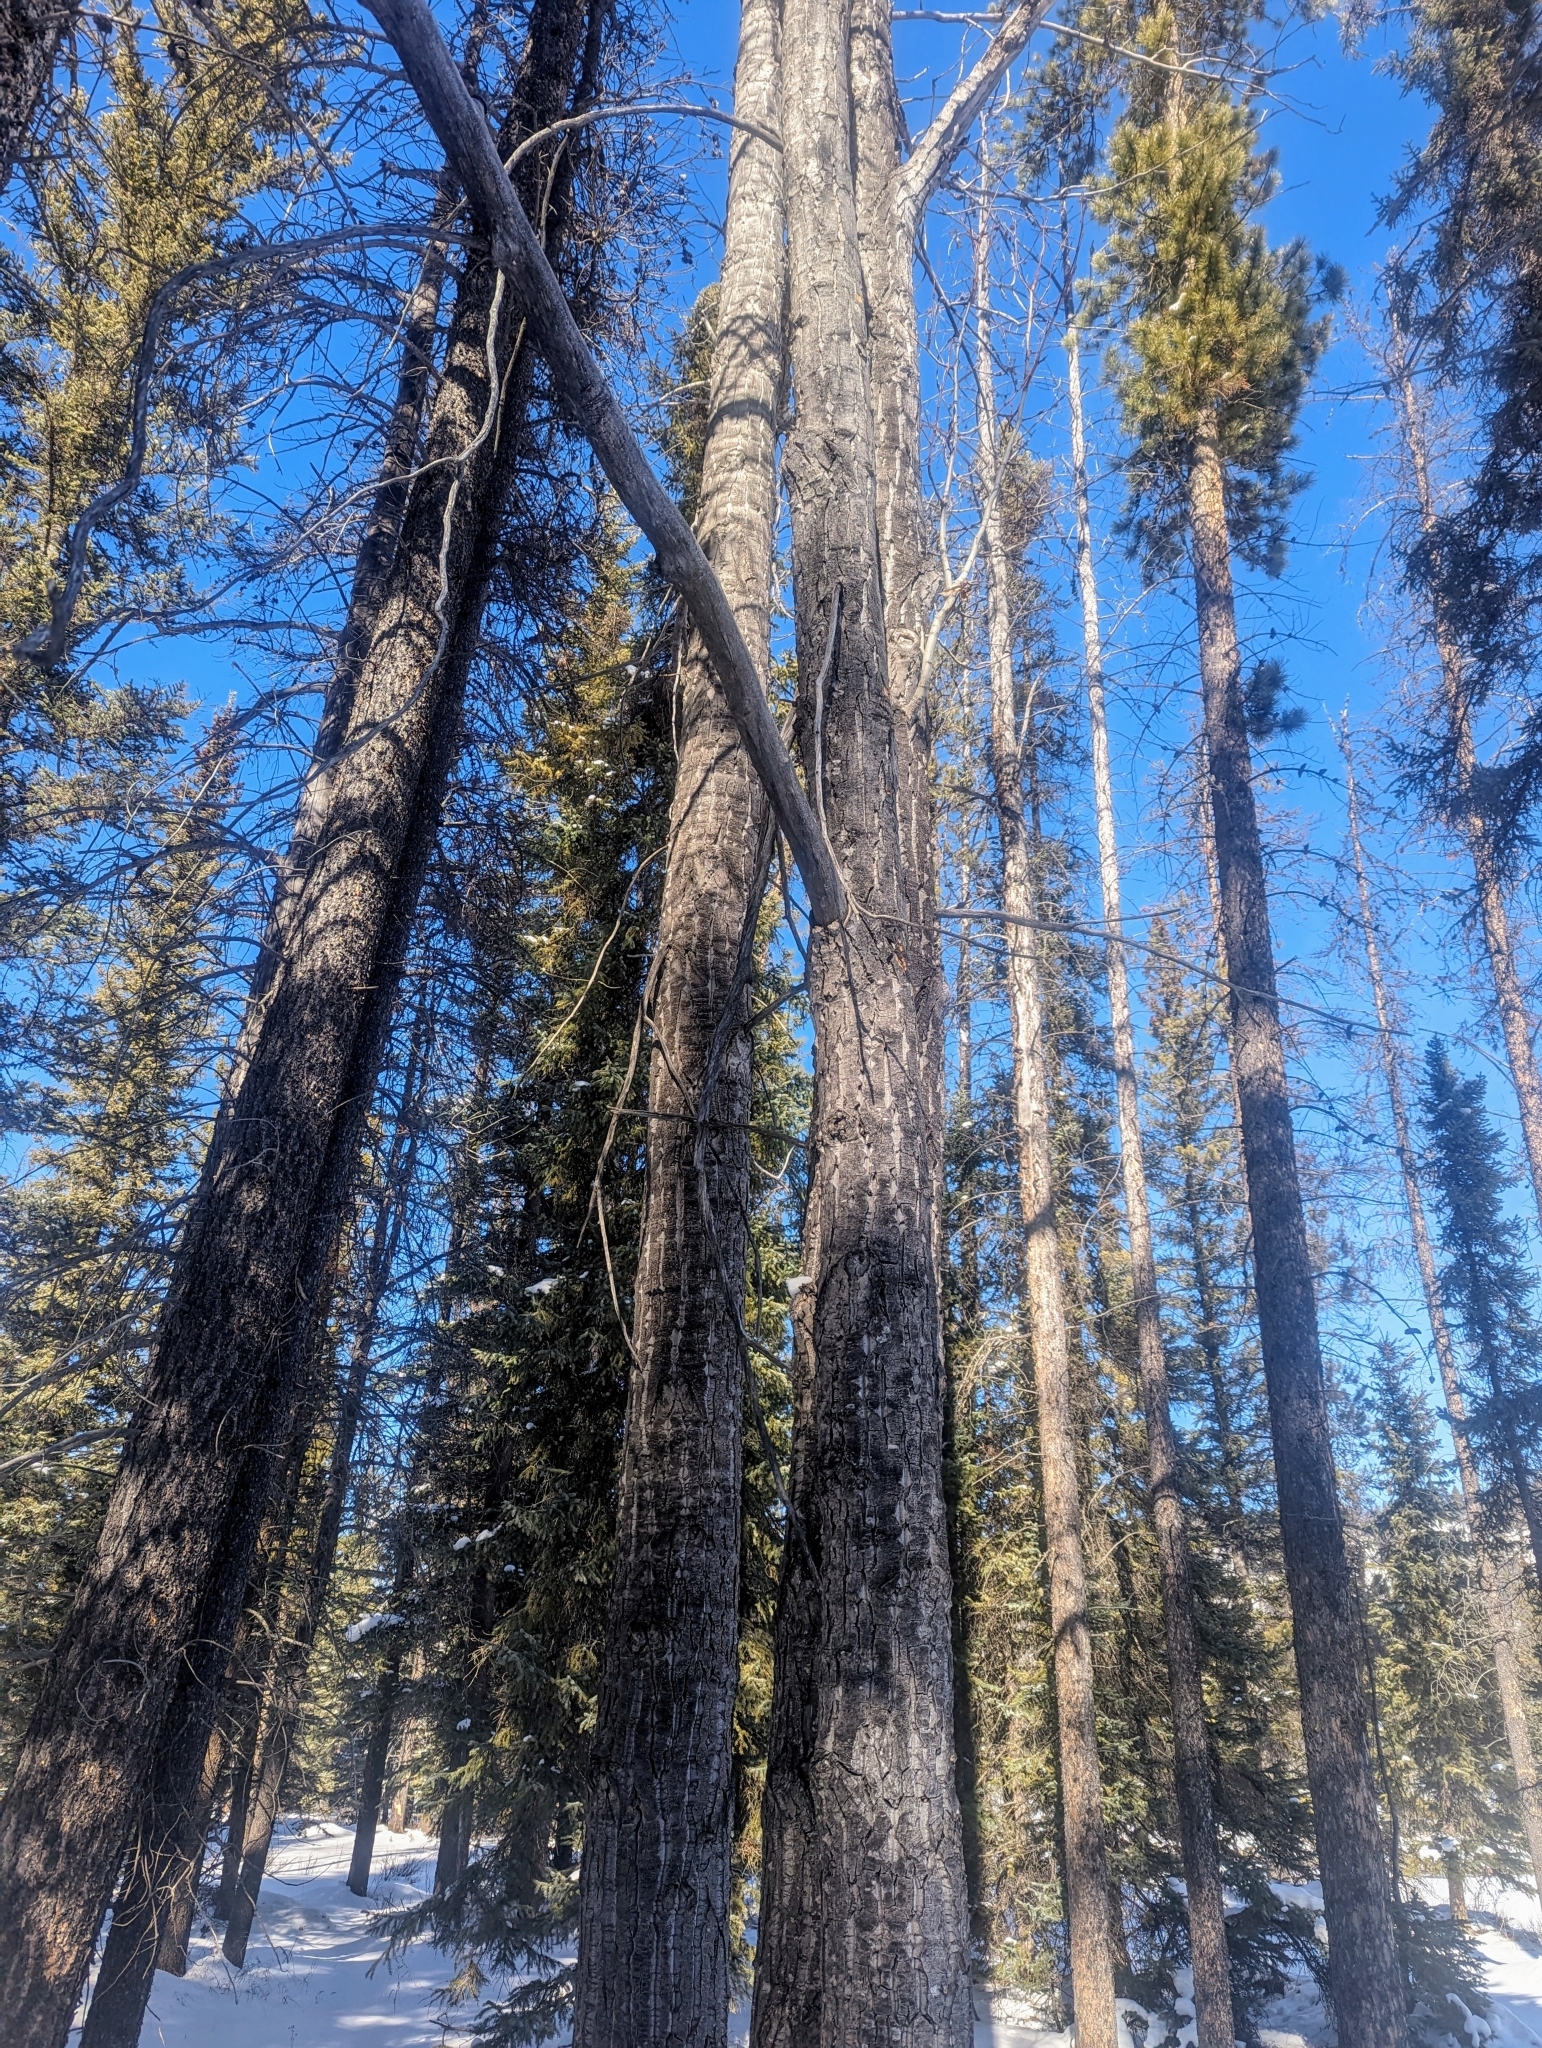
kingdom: Plantae
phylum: Tracheophyta
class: Magnoliopsida
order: Malpighiales
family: Salicaceae
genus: Populus
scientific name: Populus balsamifera
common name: Balsam poplar
